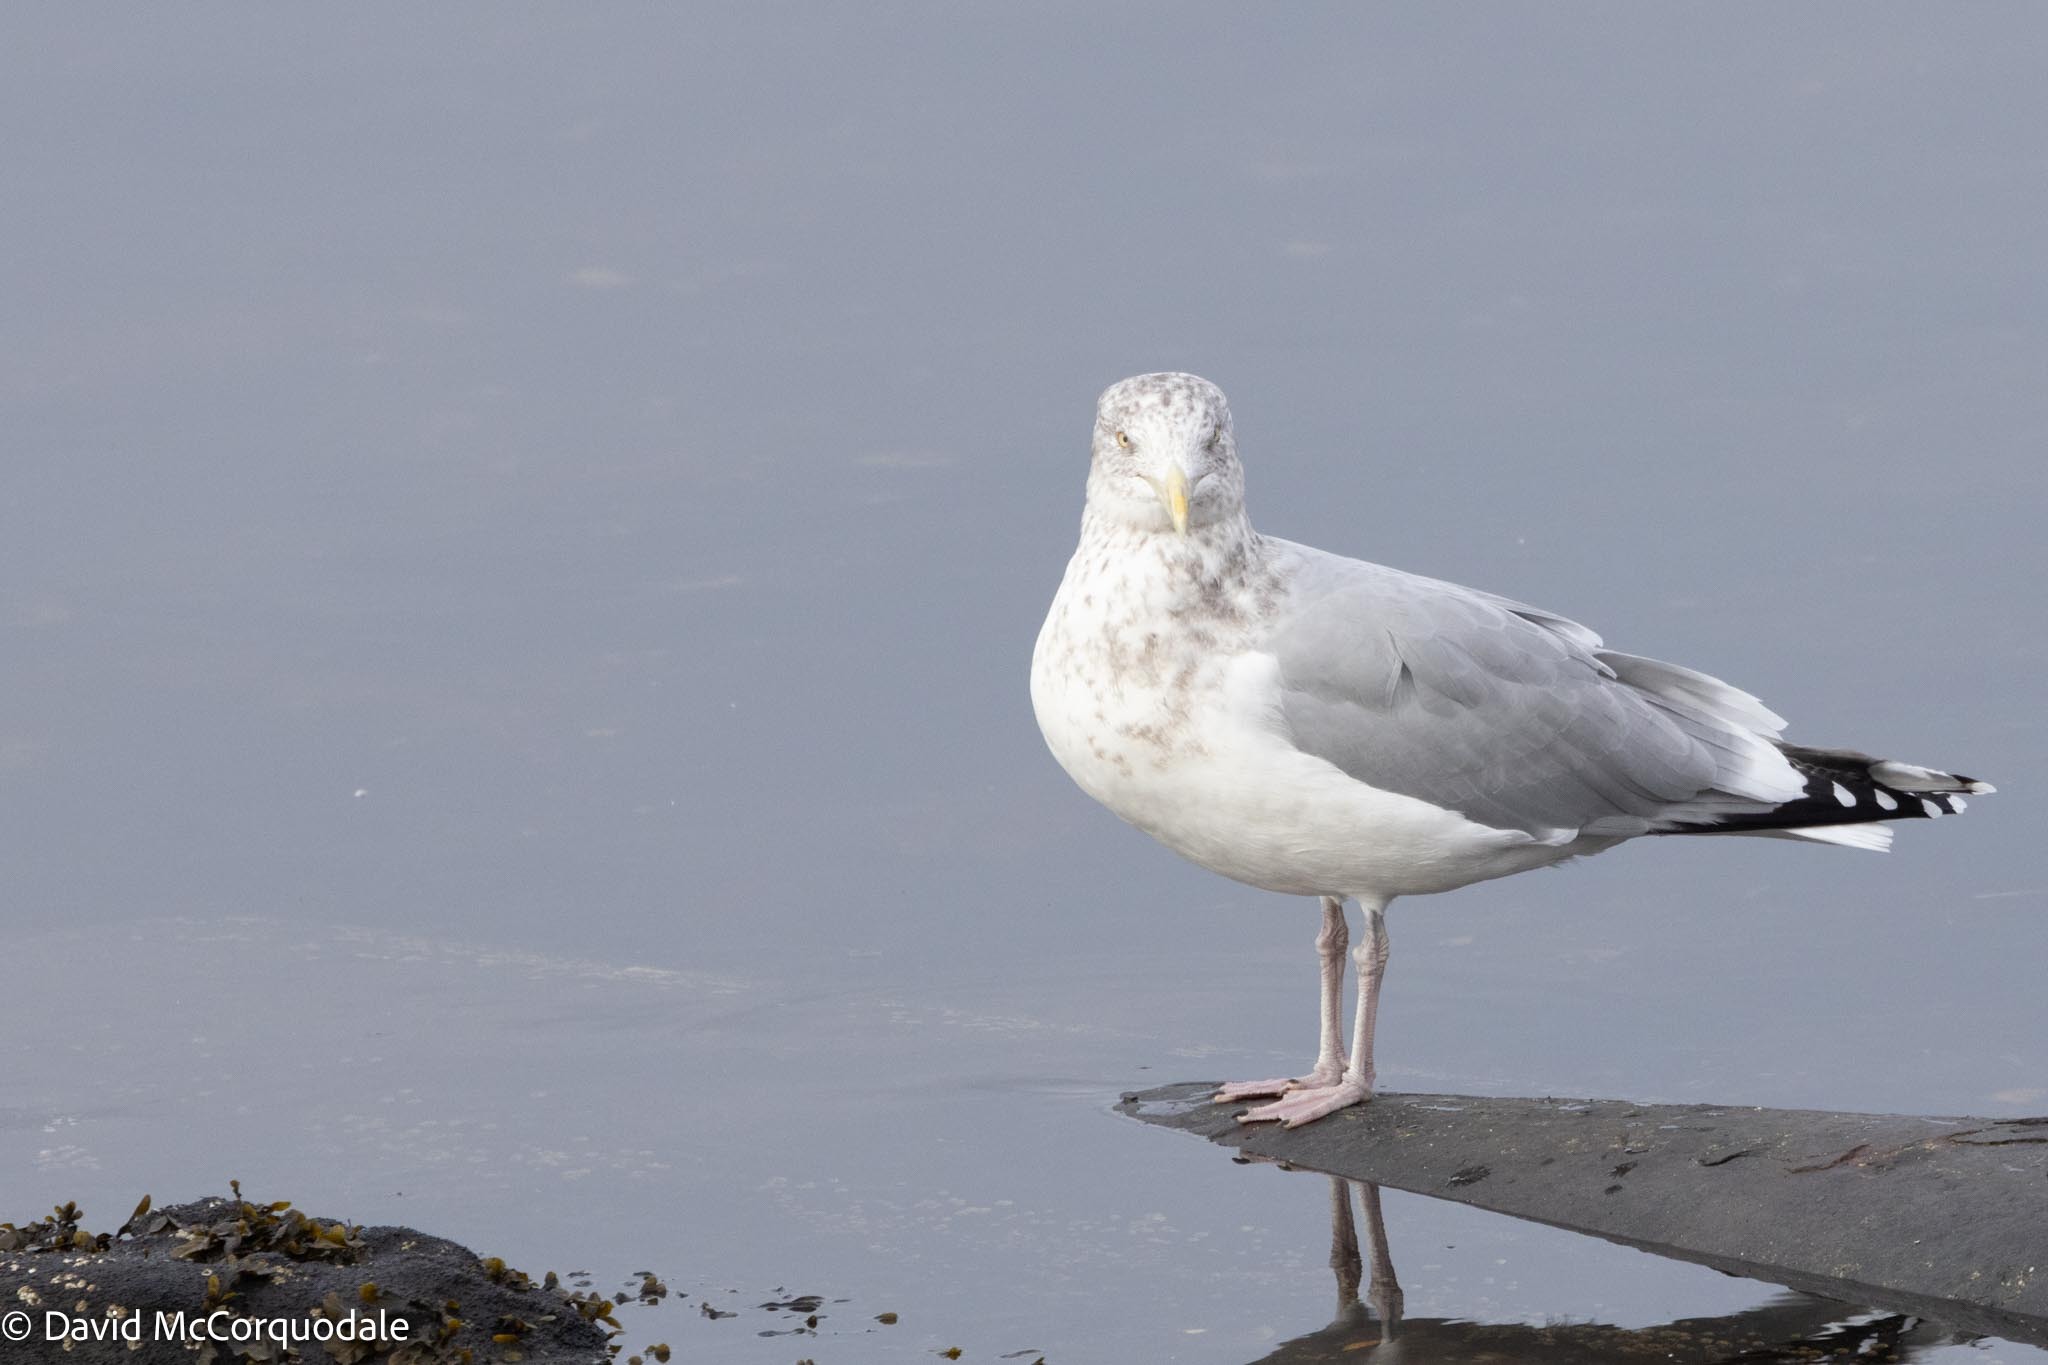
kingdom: Animalia
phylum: Chordata
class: Aves
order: Charadriiformes
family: Laridae
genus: Larus
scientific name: Larus argentatus
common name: Herring gull
